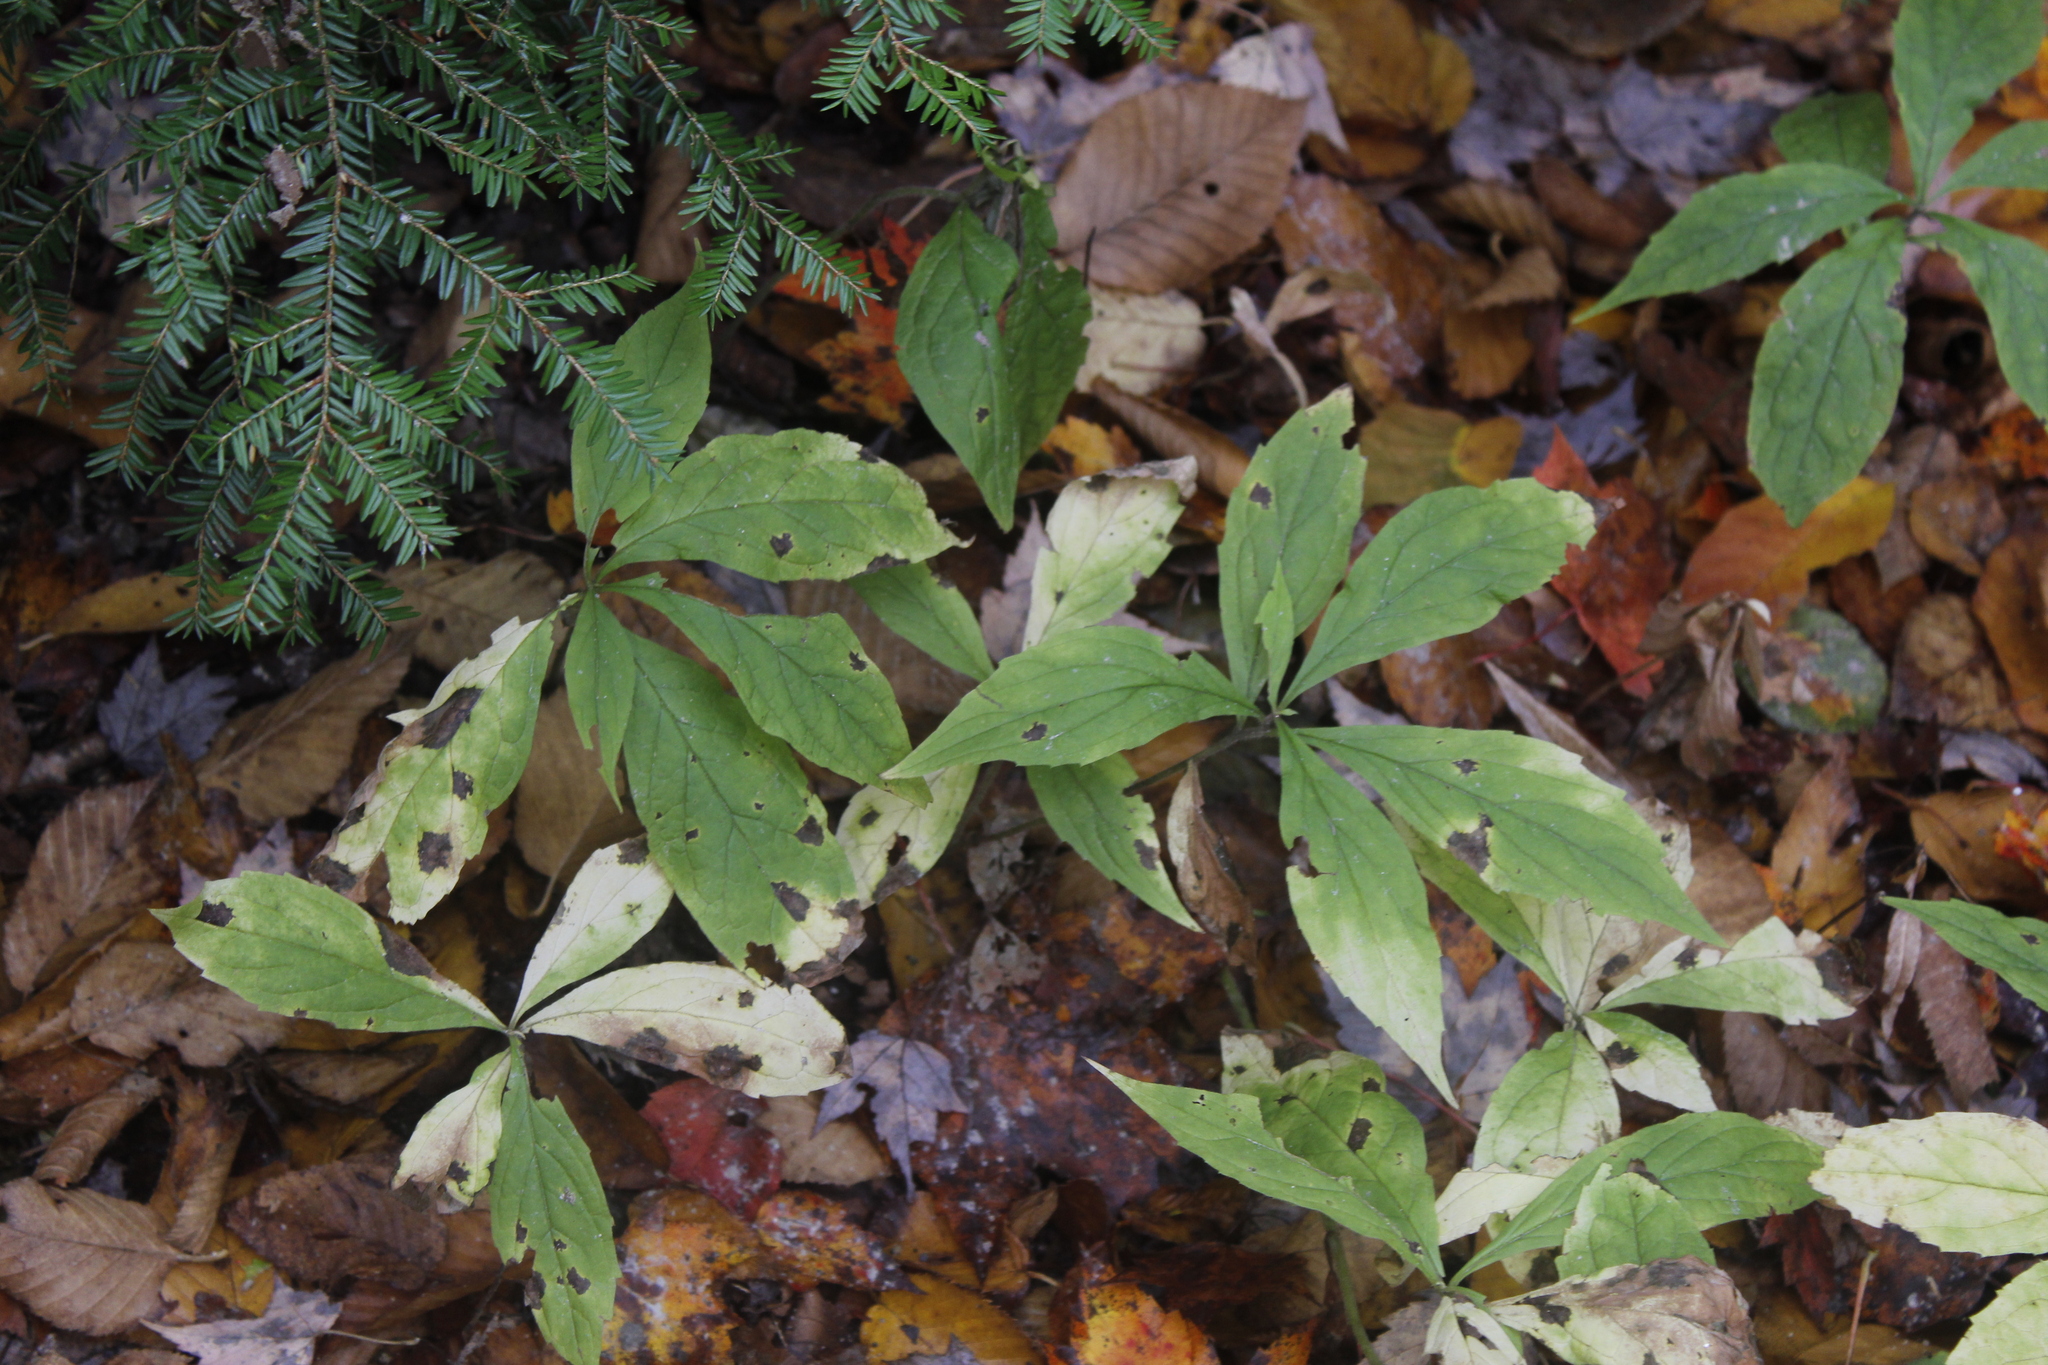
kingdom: Plantae
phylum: Tracheophyta
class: Magnoliopsida
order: Asterales
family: Asteraceae
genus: Oclemena
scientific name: Oclemena acuminata
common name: Mountain aster
